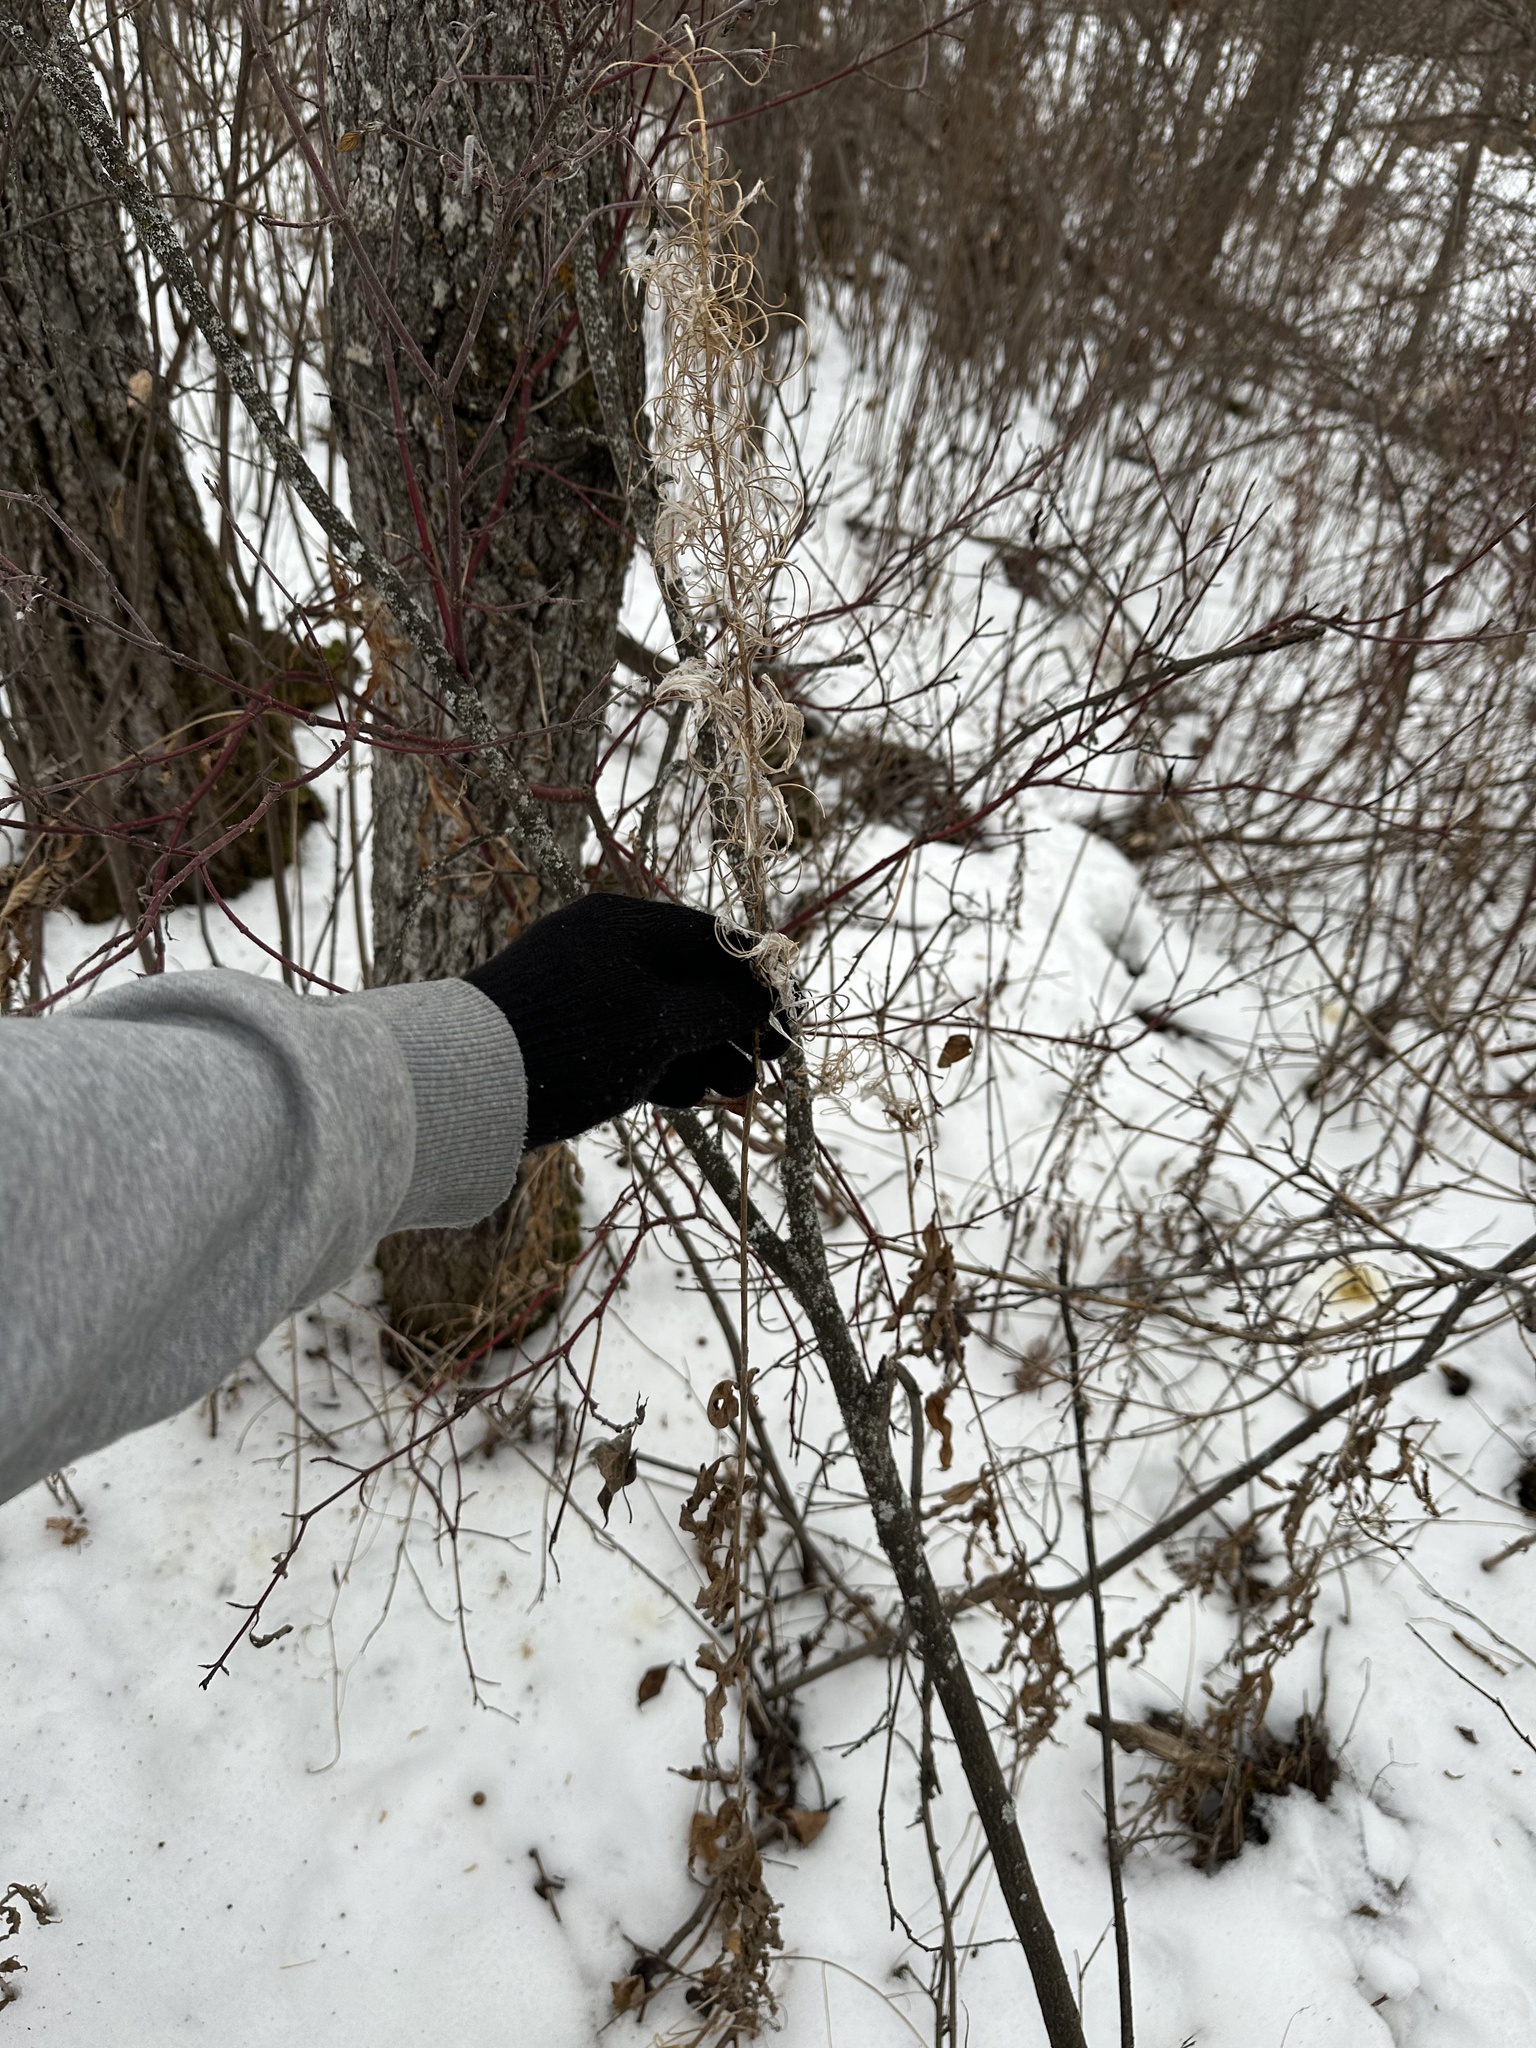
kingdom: Plantae
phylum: Tracheophyta
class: Magnoliopsida
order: Myrtales
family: Onagraceae
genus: Chamaenerion
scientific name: Chamaenerion angustifolium
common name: Fireweed
